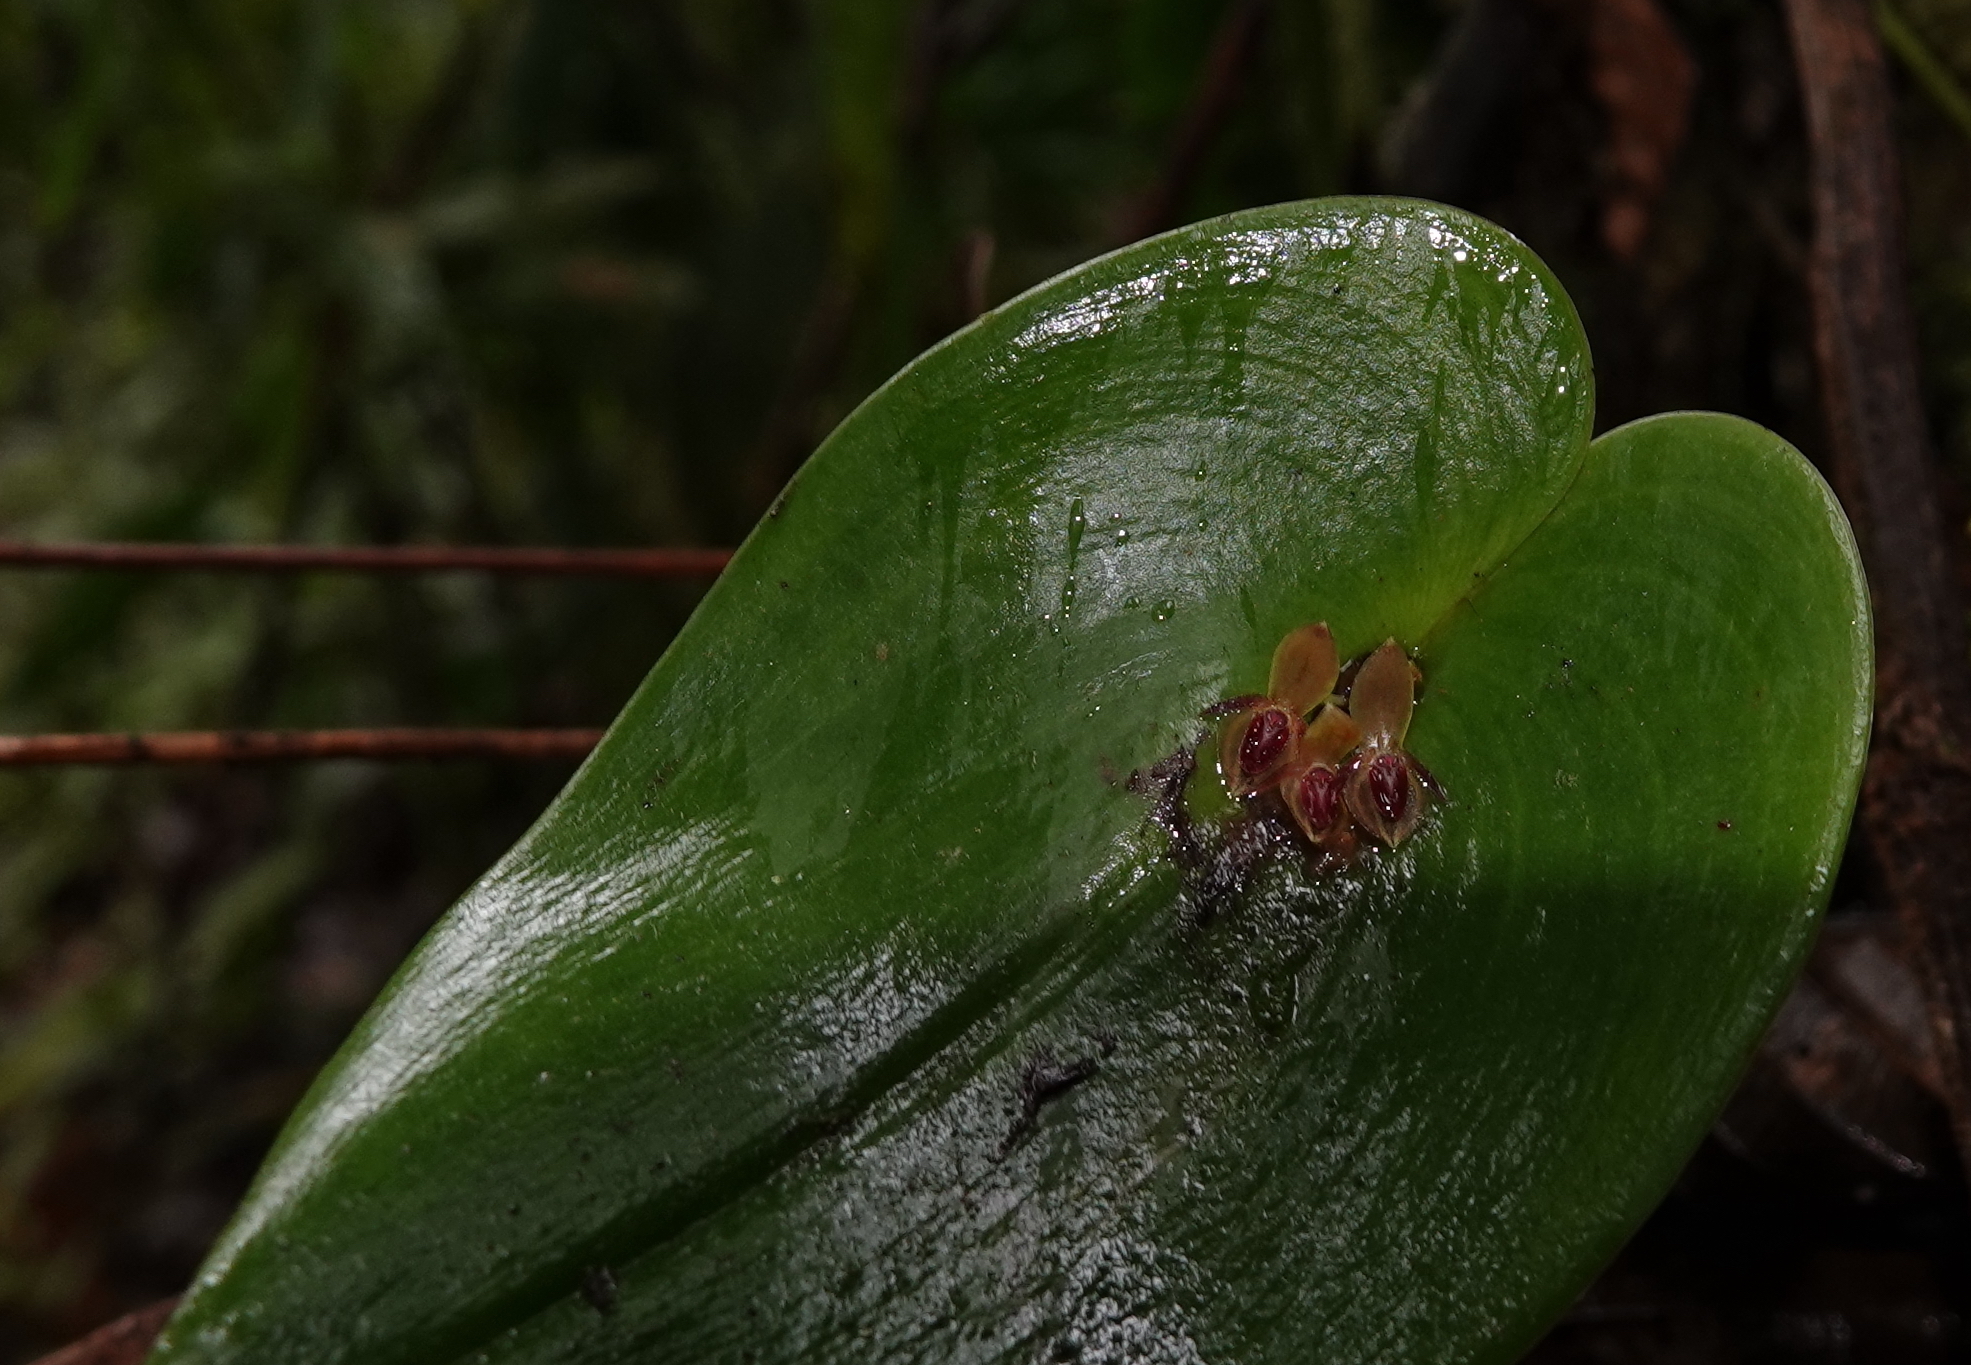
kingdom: Plantae
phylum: Tracheophyta
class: Liliopsida
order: Asparagales
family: Orchidaceae
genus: Pleurothallis
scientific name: Pleurothallis cordata
